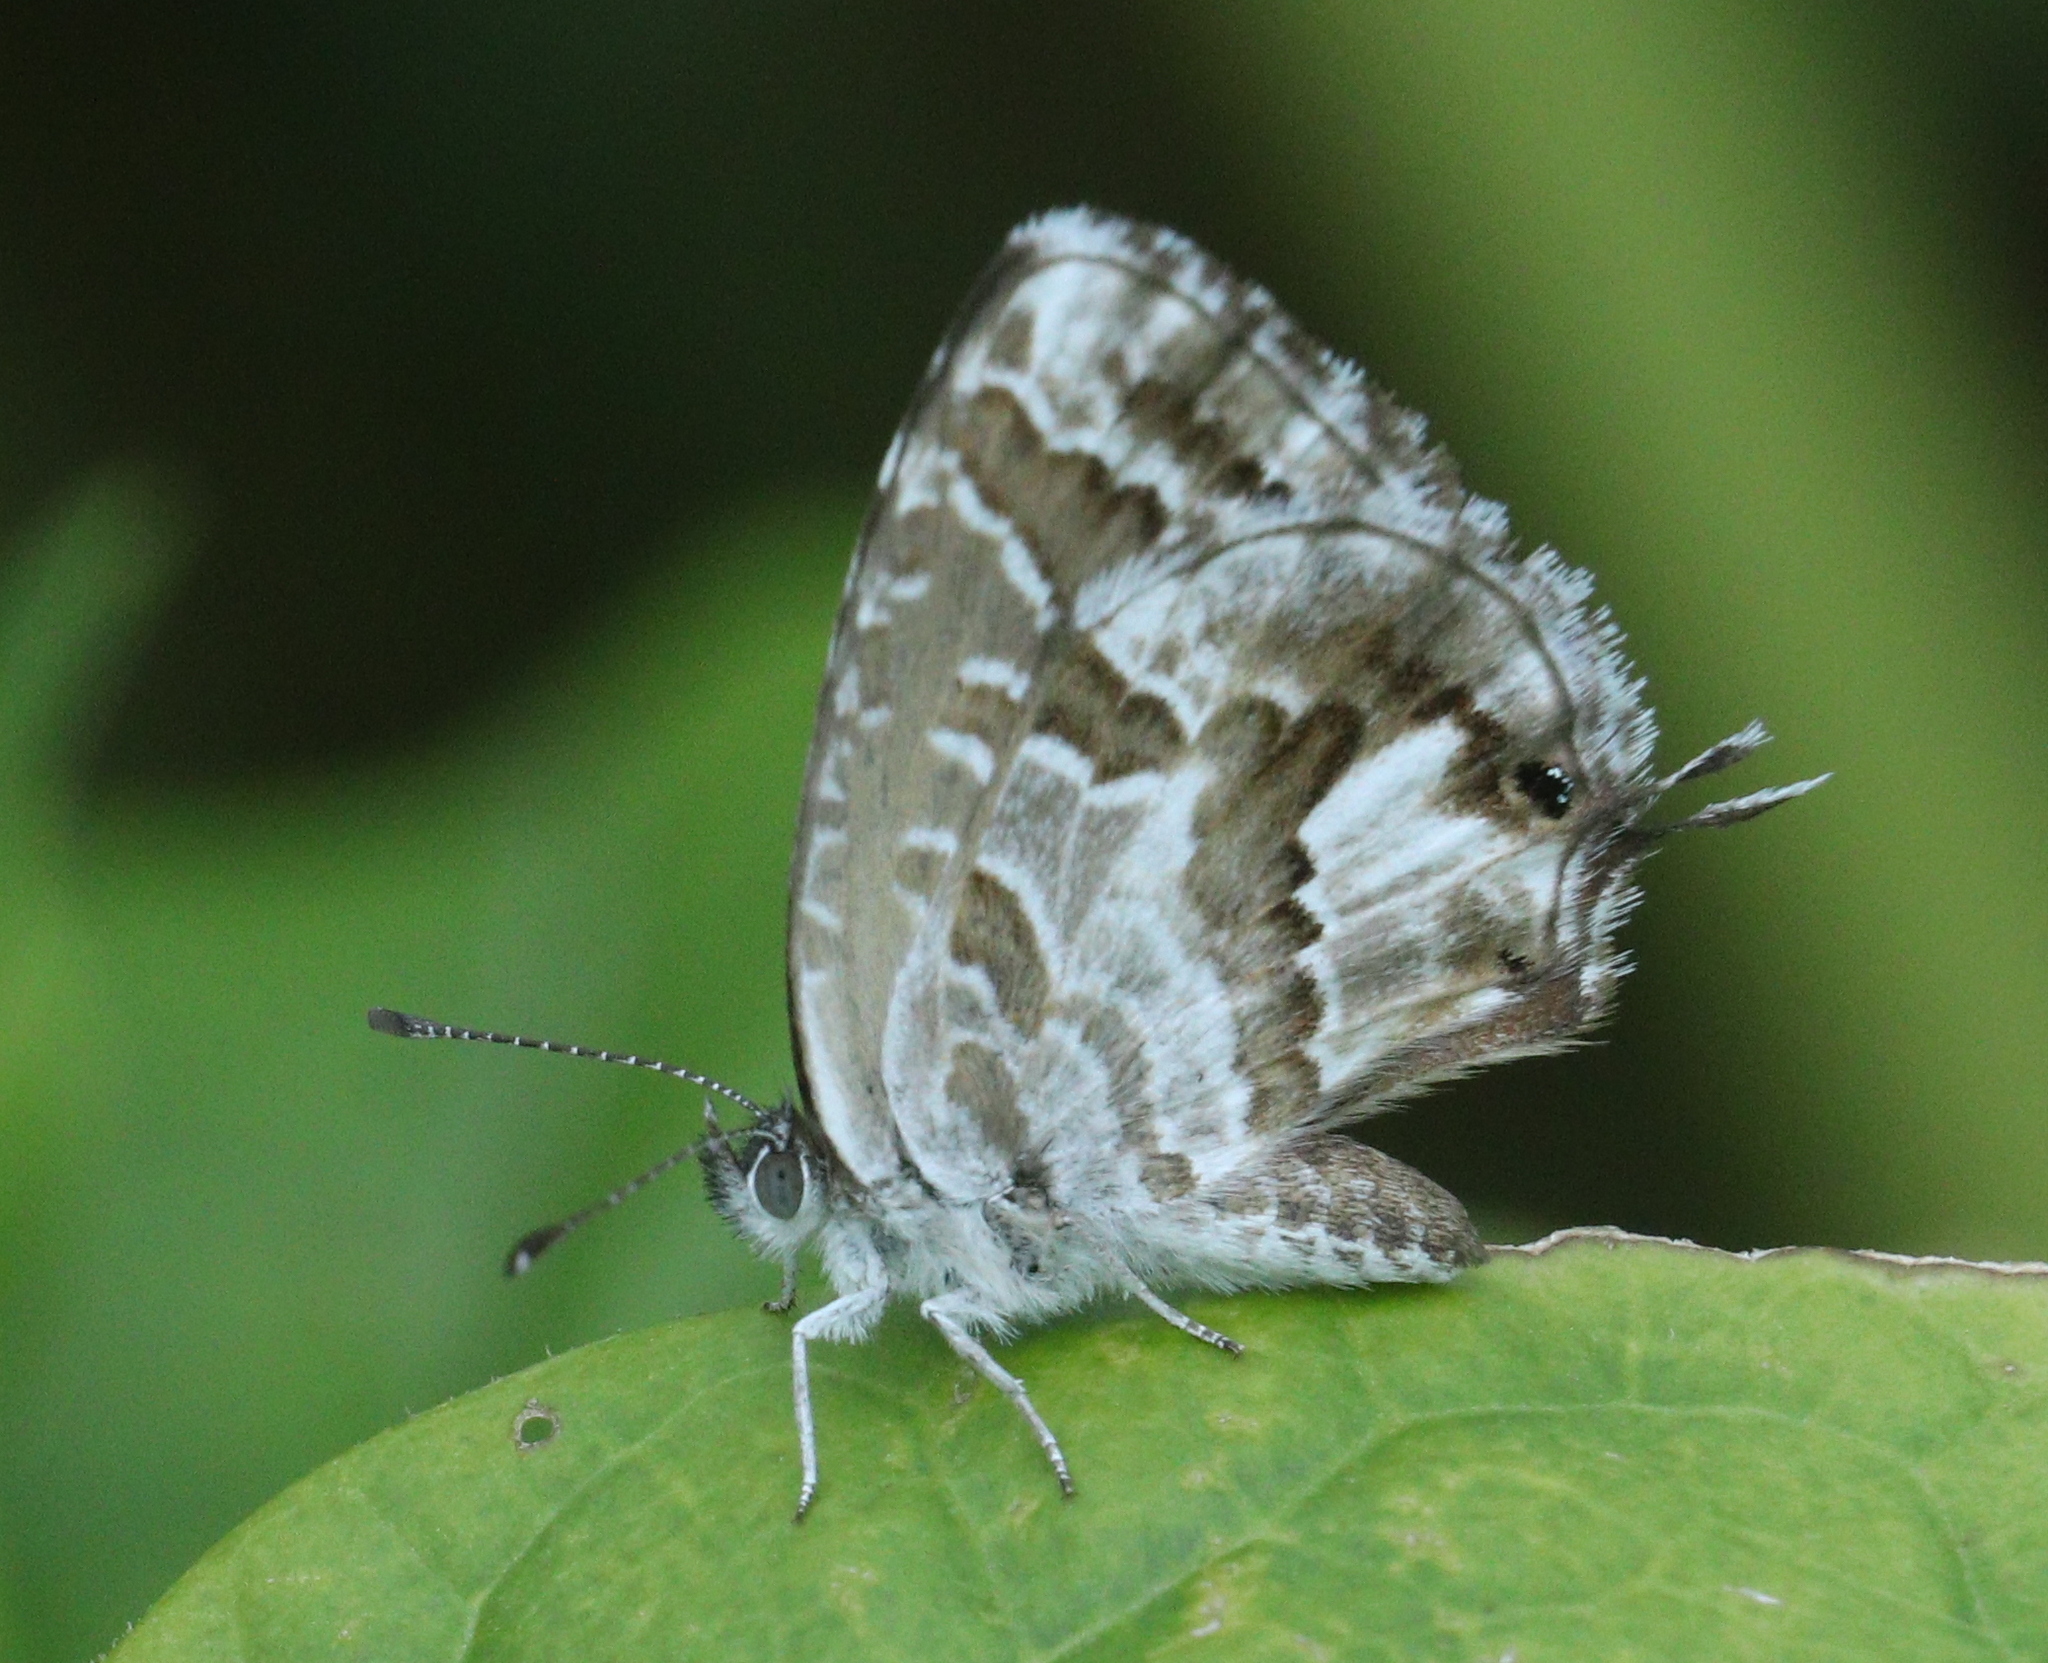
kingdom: Animalia
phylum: Arthropoda
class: Insecta
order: Lepidoptera
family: Lycaenidae
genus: Cacyreus
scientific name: Cacyreus marshalli
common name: Geranium bronze
